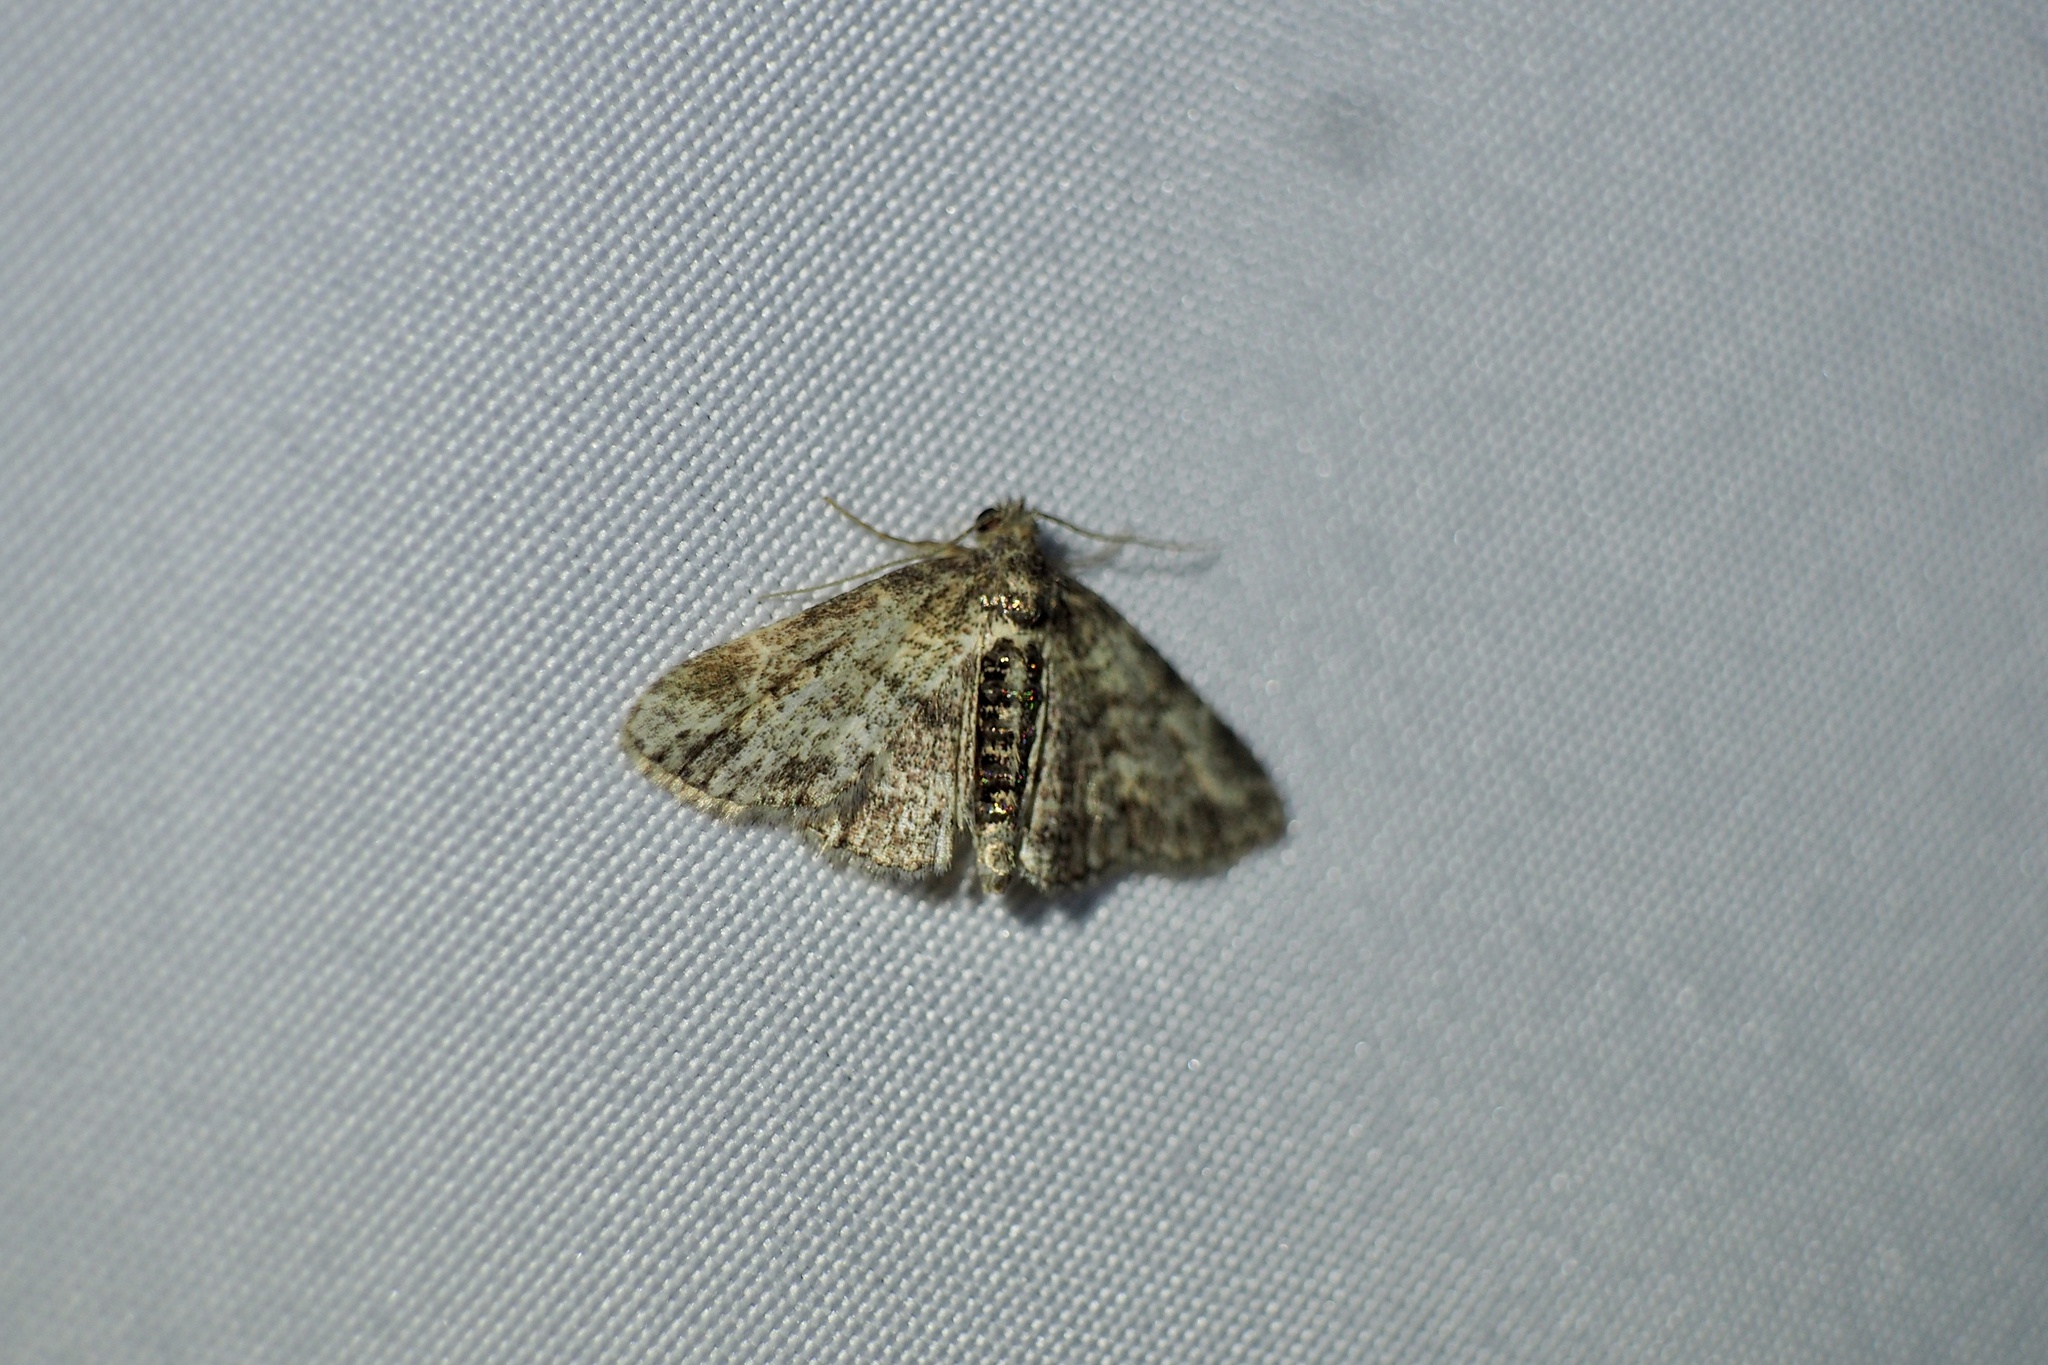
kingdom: Animalia
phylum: Arthropoda
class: Insecta
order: Lepidoptera
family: Erebidae
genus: Paragona
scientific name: Paragona inchoata
